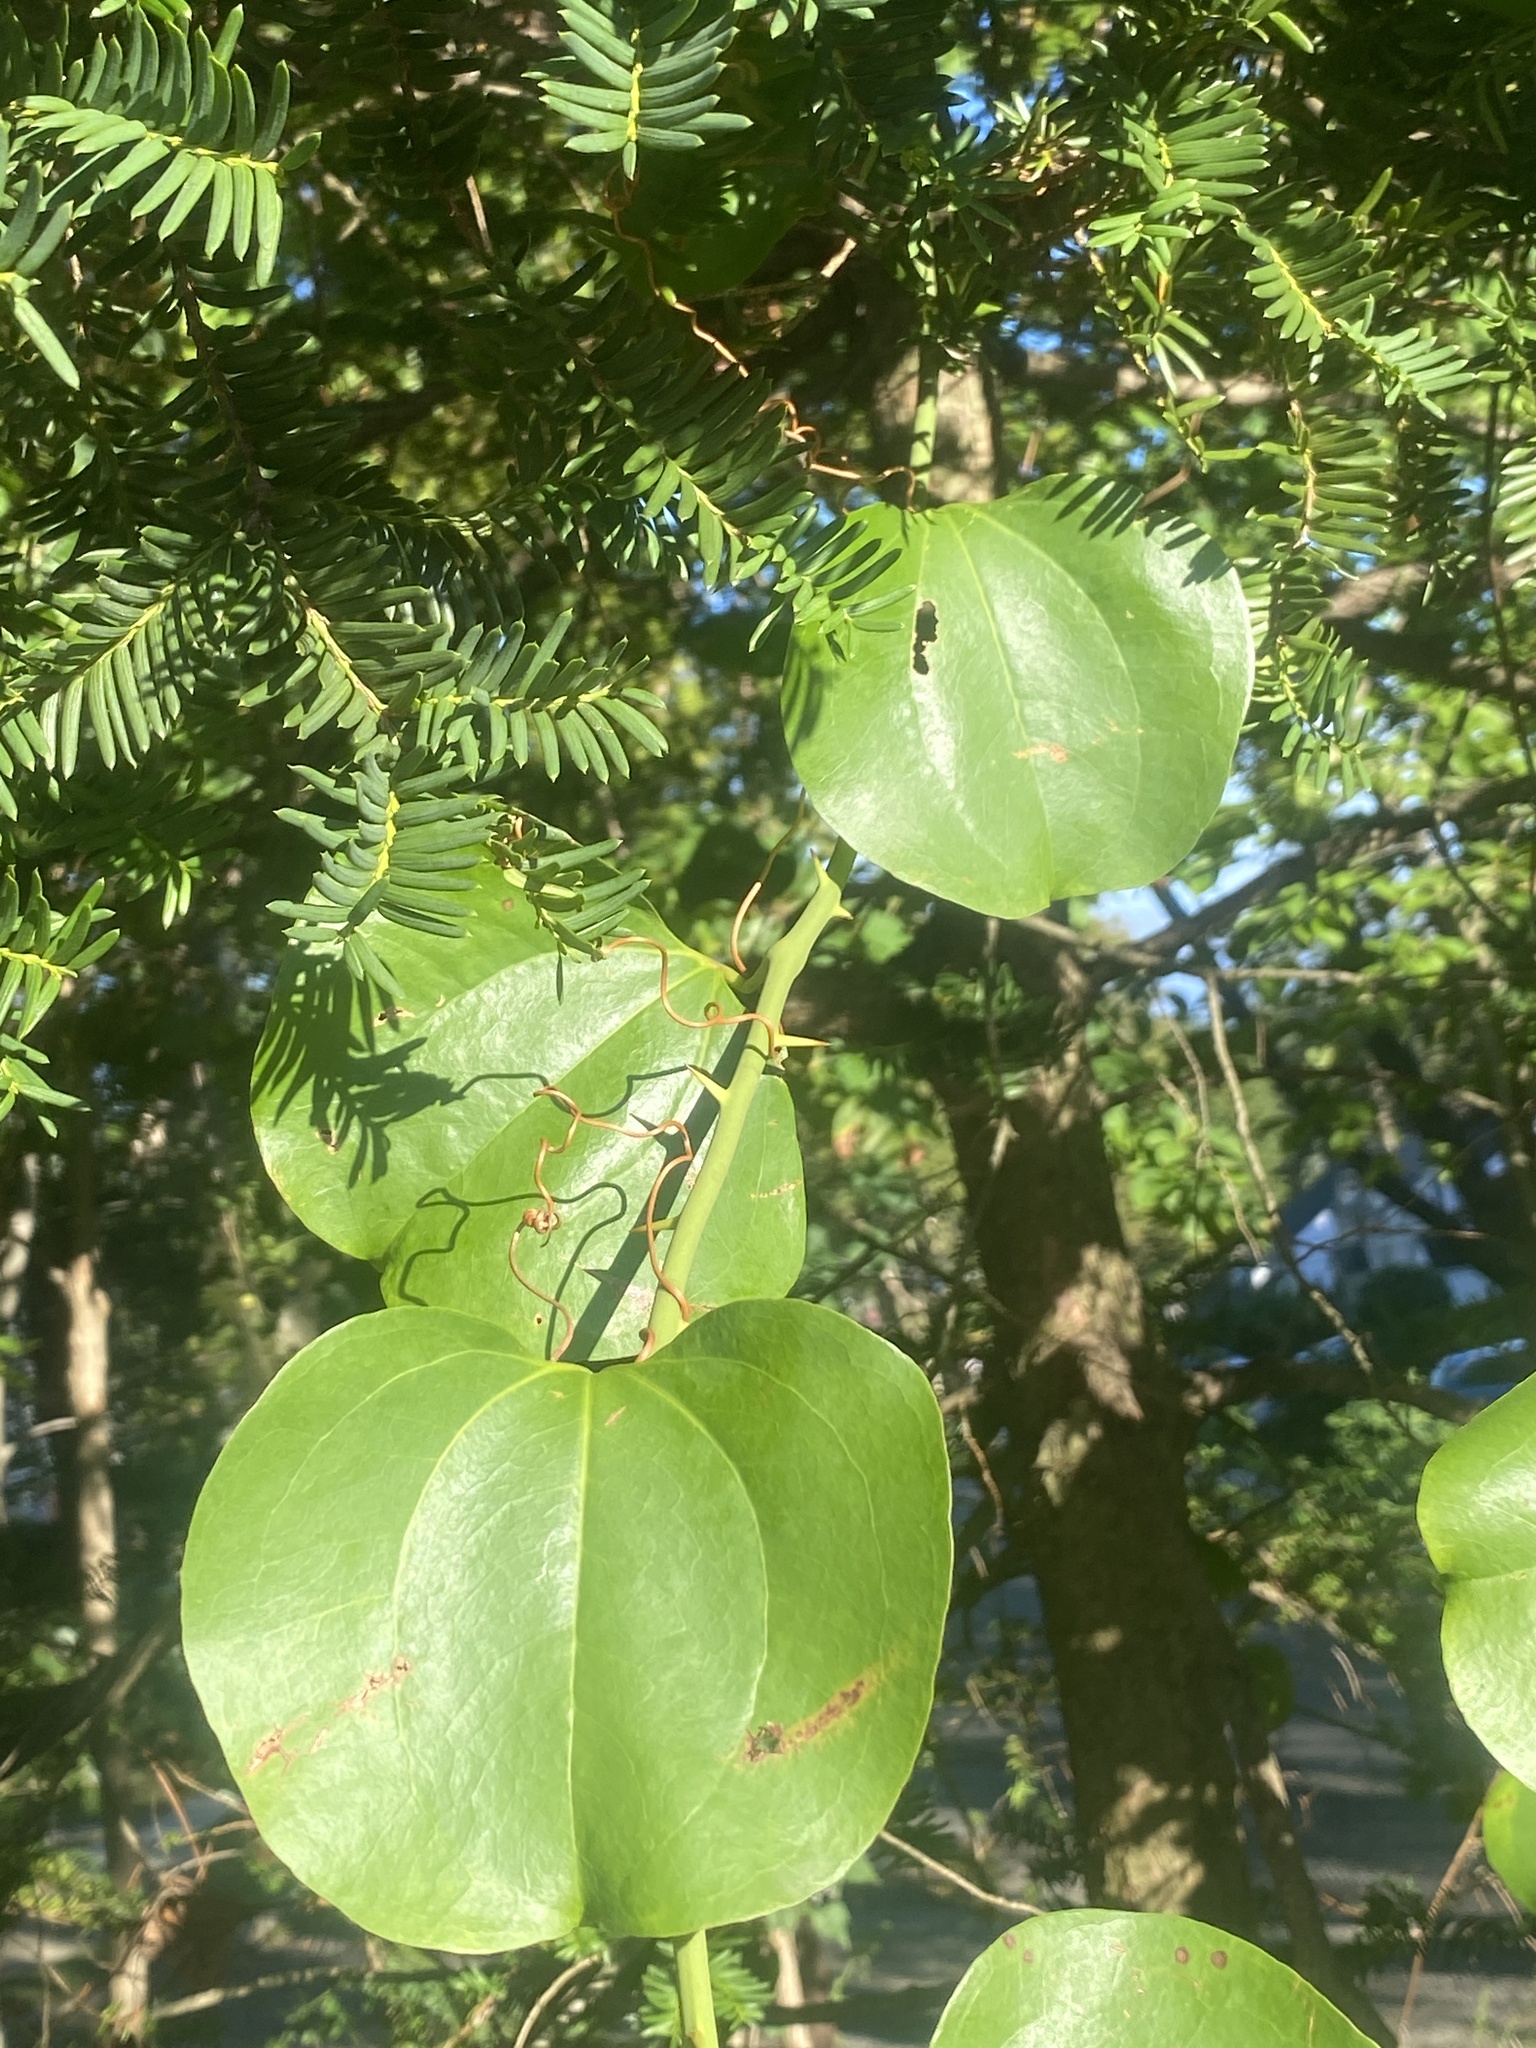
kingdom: Plantae
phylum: Tracheophyta
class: Liliopsida
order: Liliales
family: Smilacaceae
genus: Smilax
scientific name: Smilax rotundifolia
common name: Bullbriar
